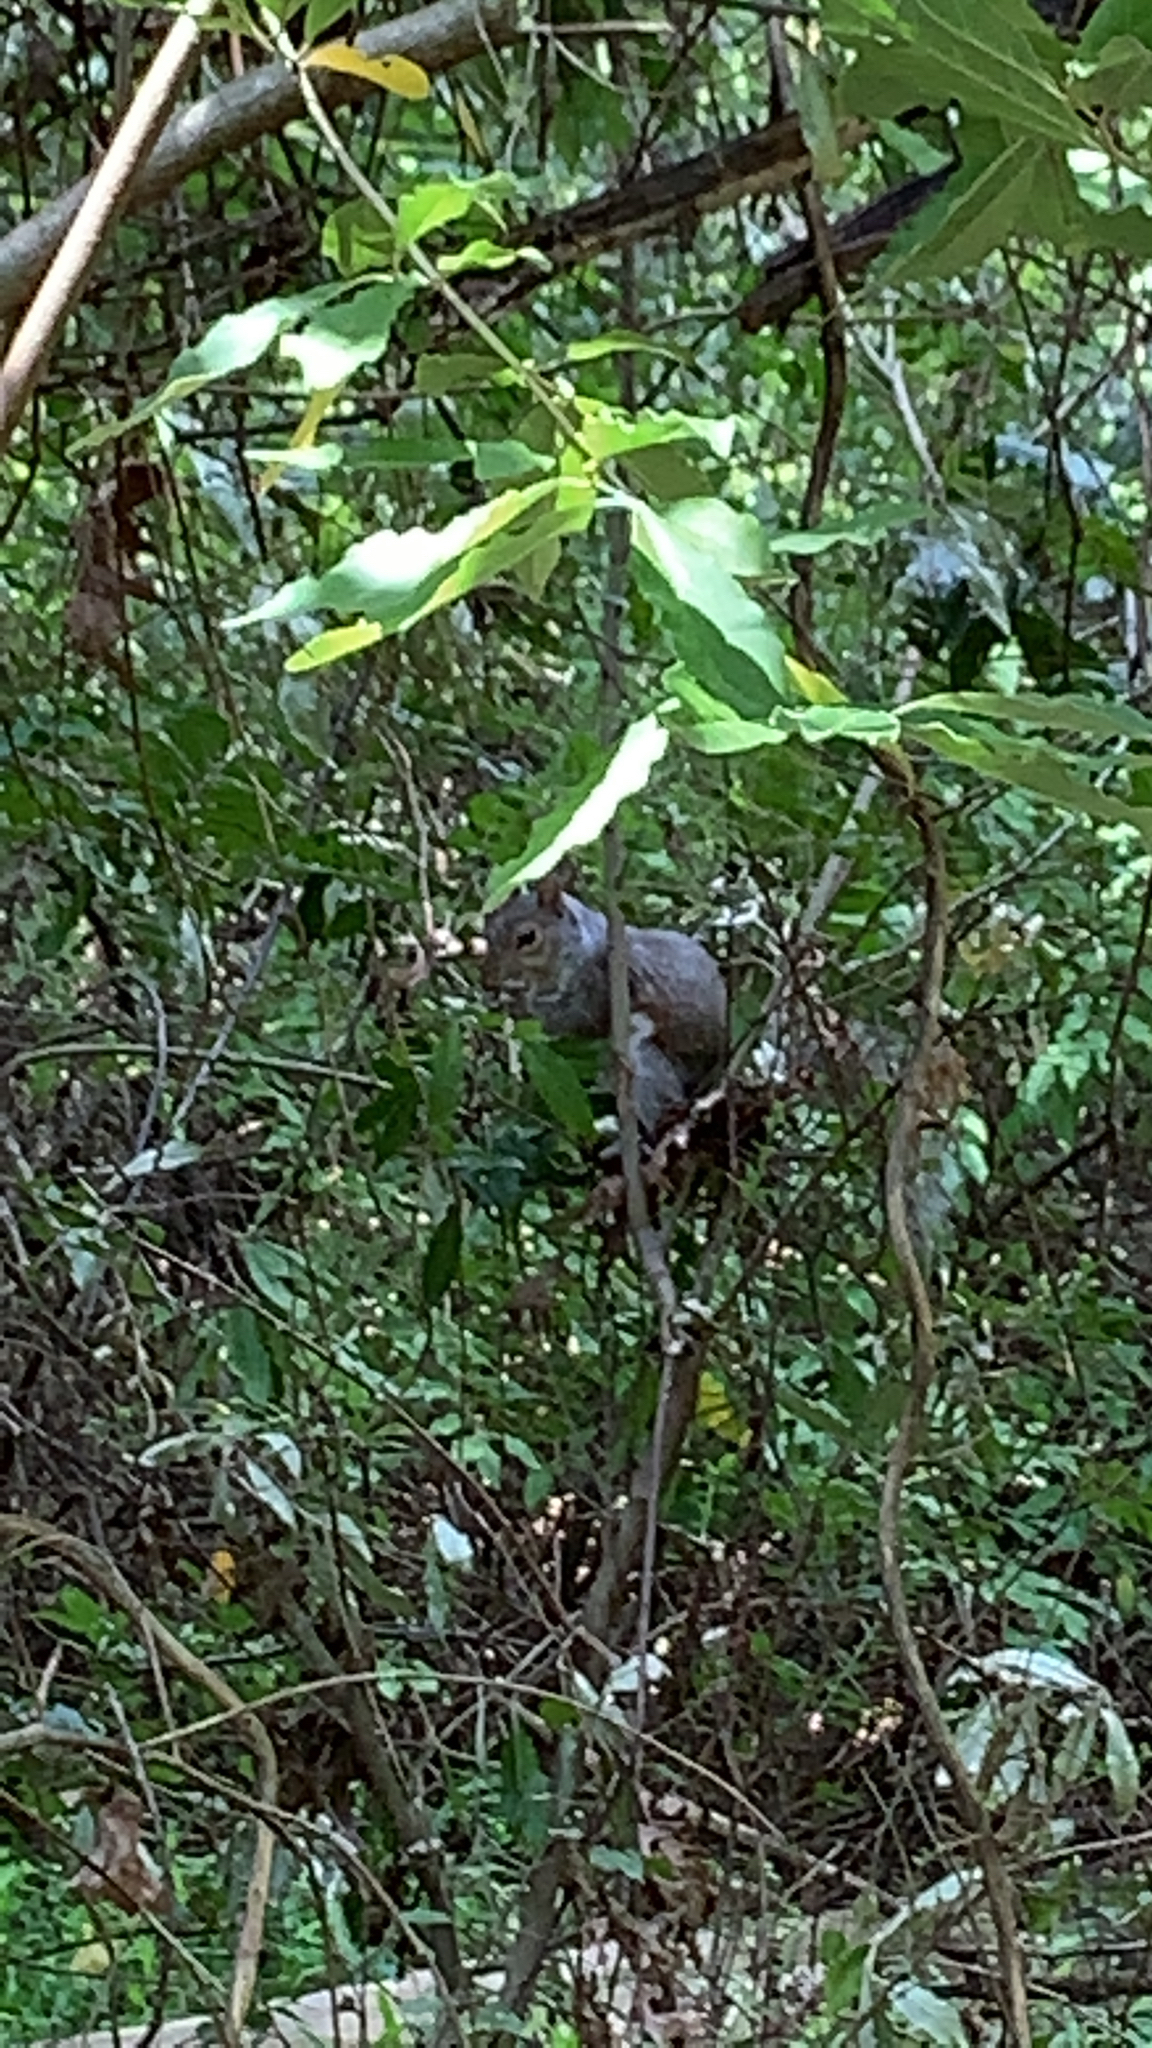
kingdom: Animalia
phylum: Chordata
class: Mammalia
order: Rodentia
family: Sciuridae
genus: Sciurus
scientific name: Sciurus carolinensis
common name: Eastern gray squirrel
